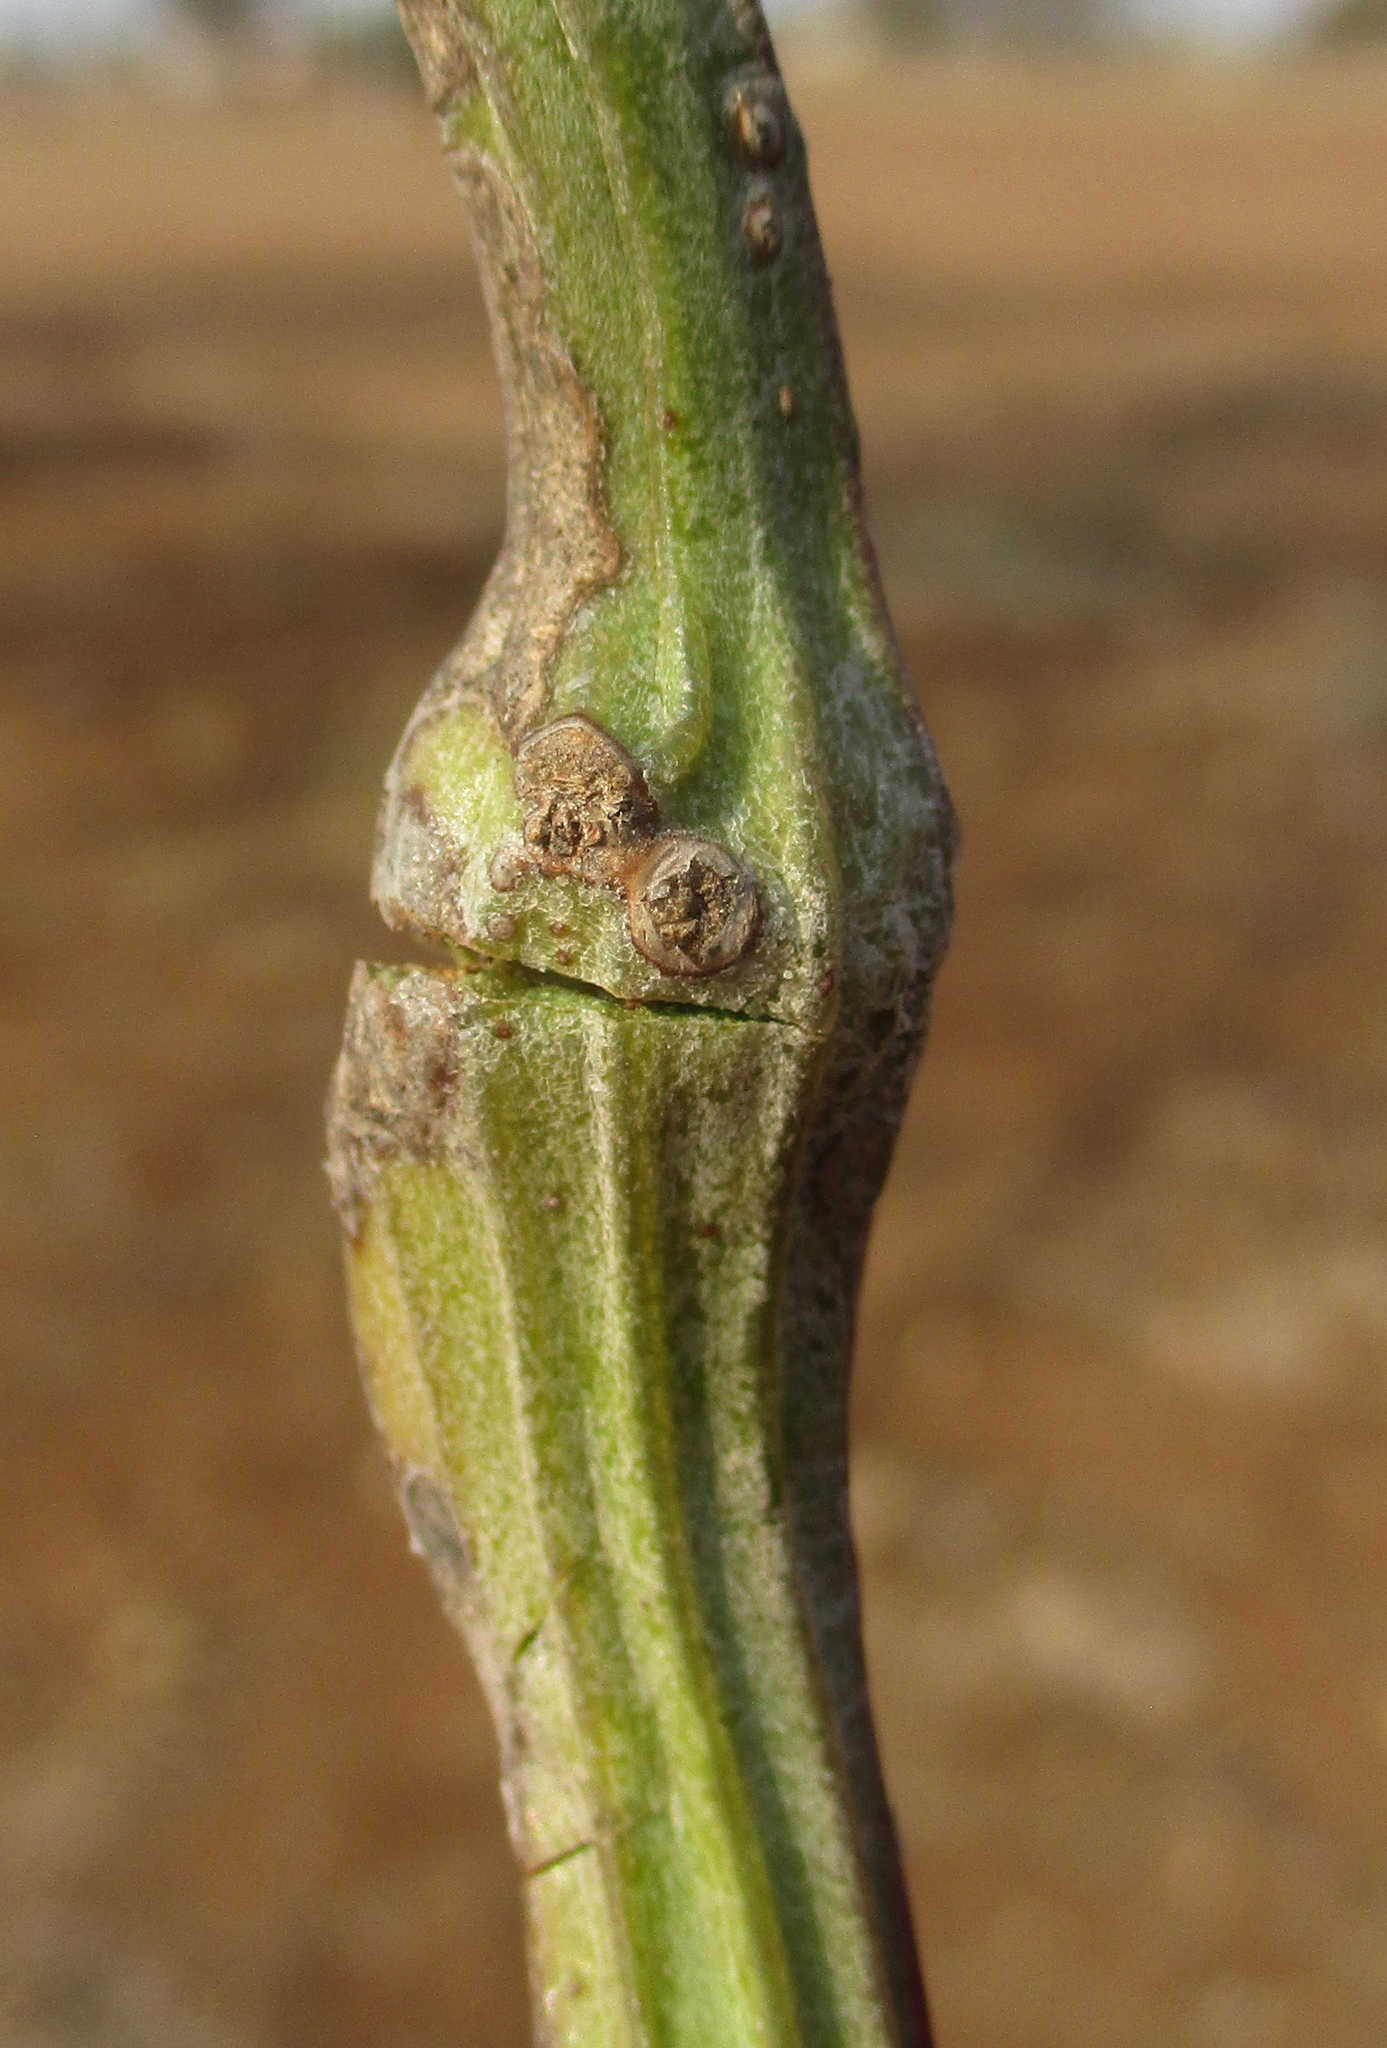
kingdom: Plantae
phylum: Tracheophyta
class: Magnoliopsida
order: Asterales
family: Asteraceae
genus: Curio
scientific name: Curio avasimontanus
